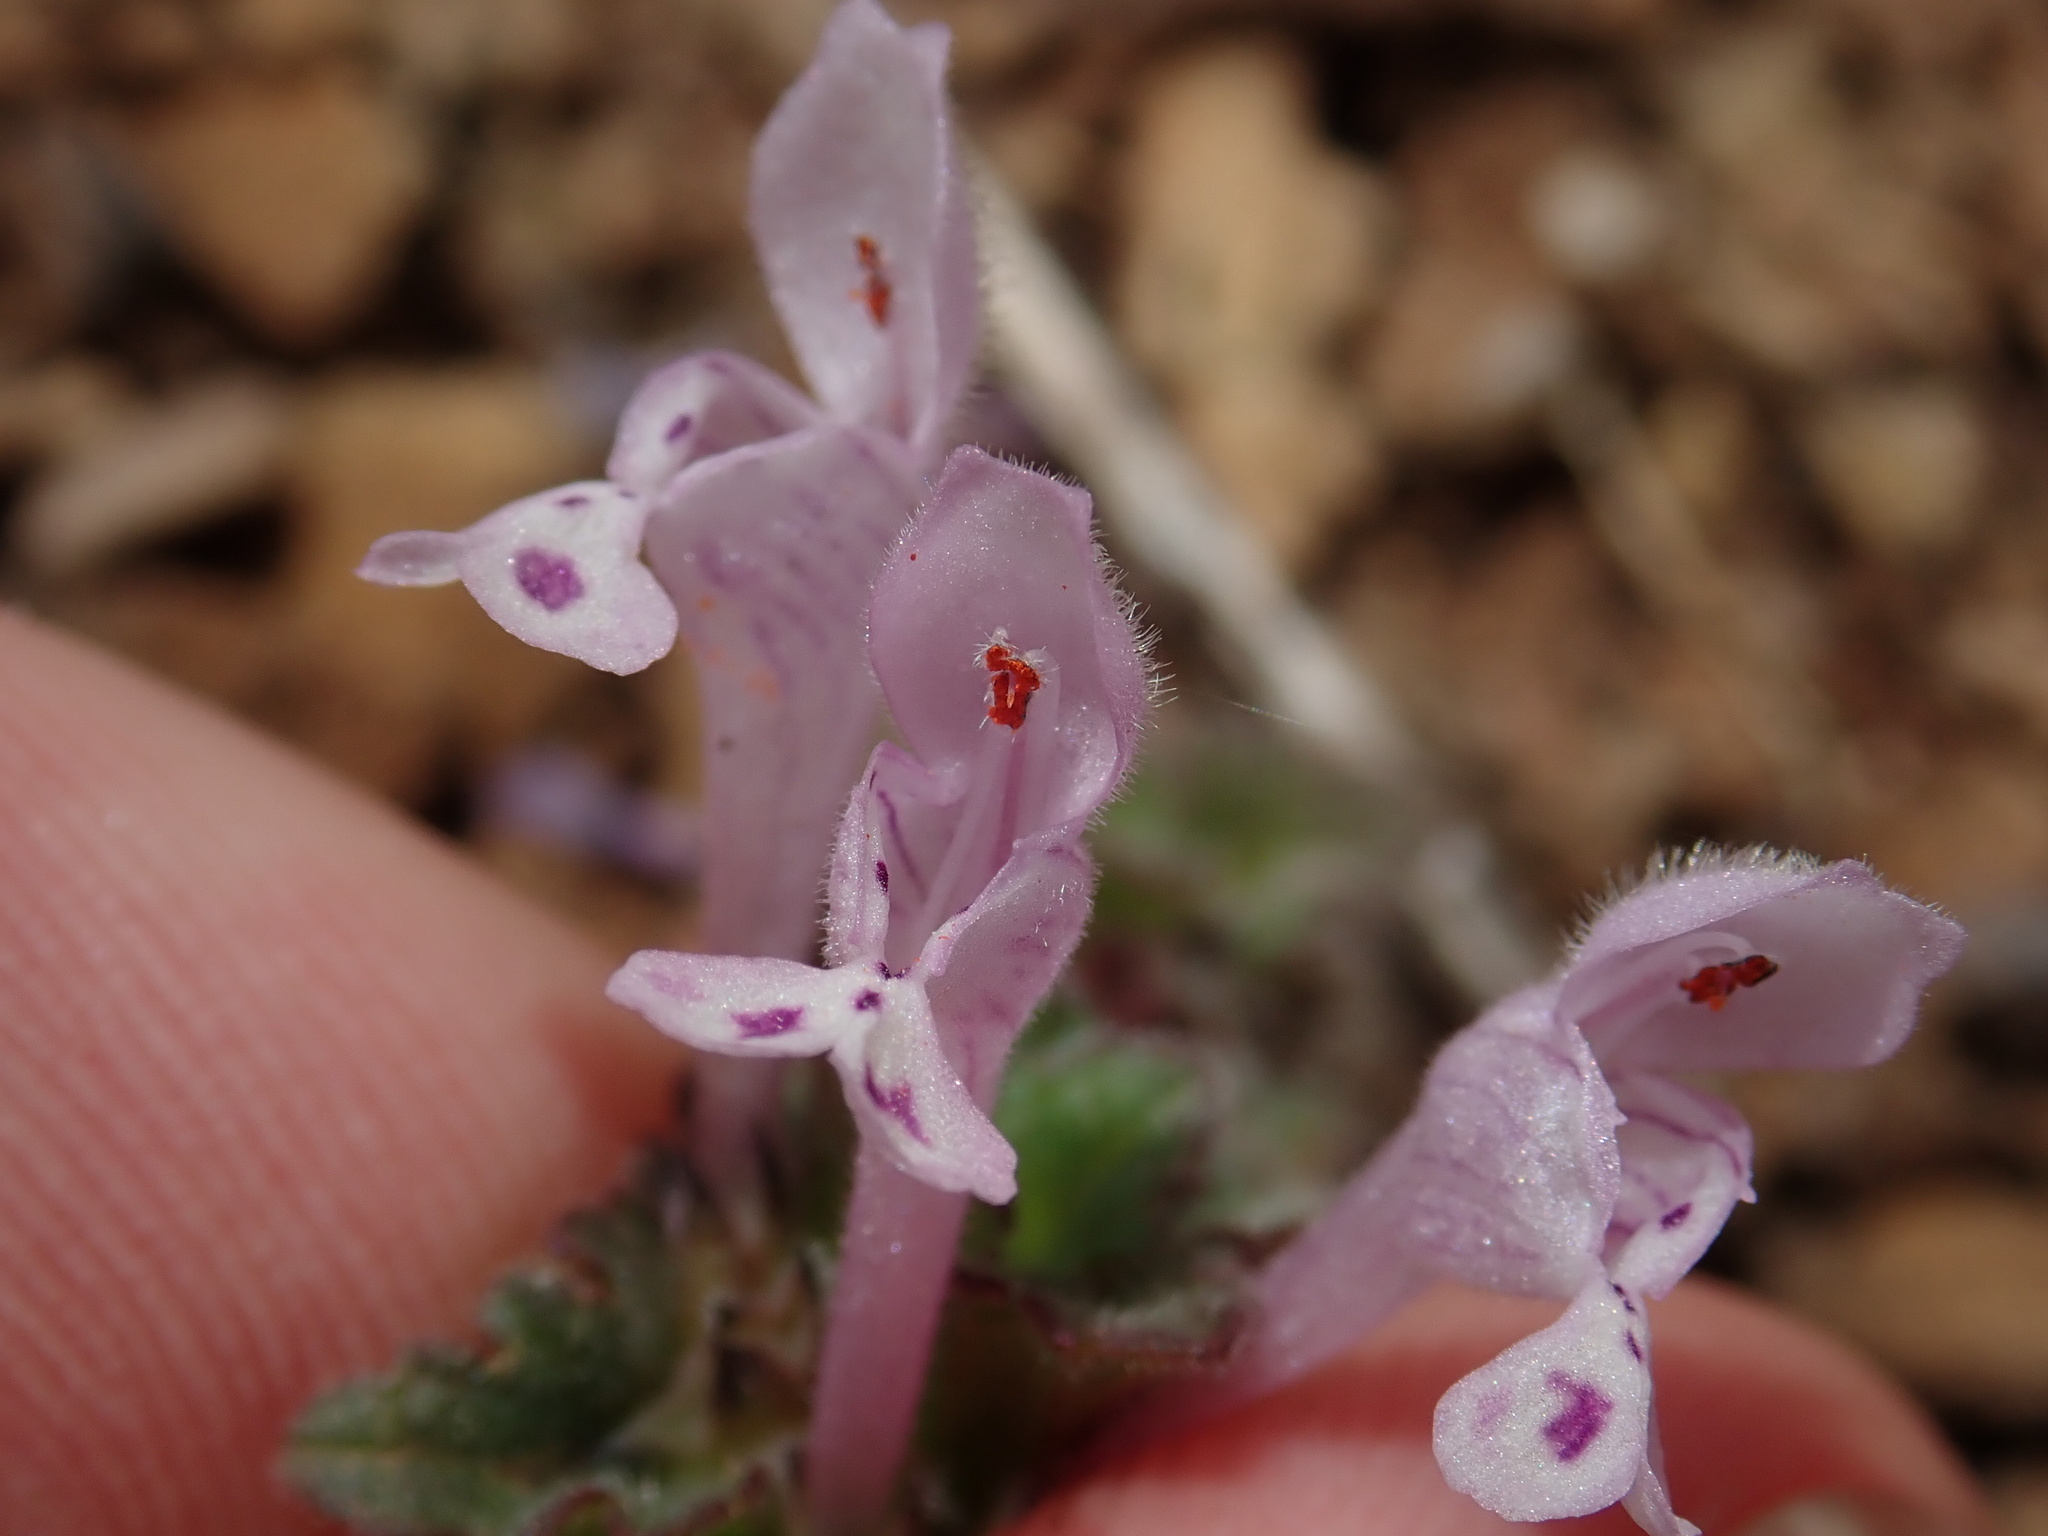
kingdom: Plantae
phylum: Tracheophyta
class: Magnoliopsida
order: Lamiales
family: Lamiaceae
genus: Lamium
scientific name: Lamium amplexicaule
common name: Henbit dead-nettle
